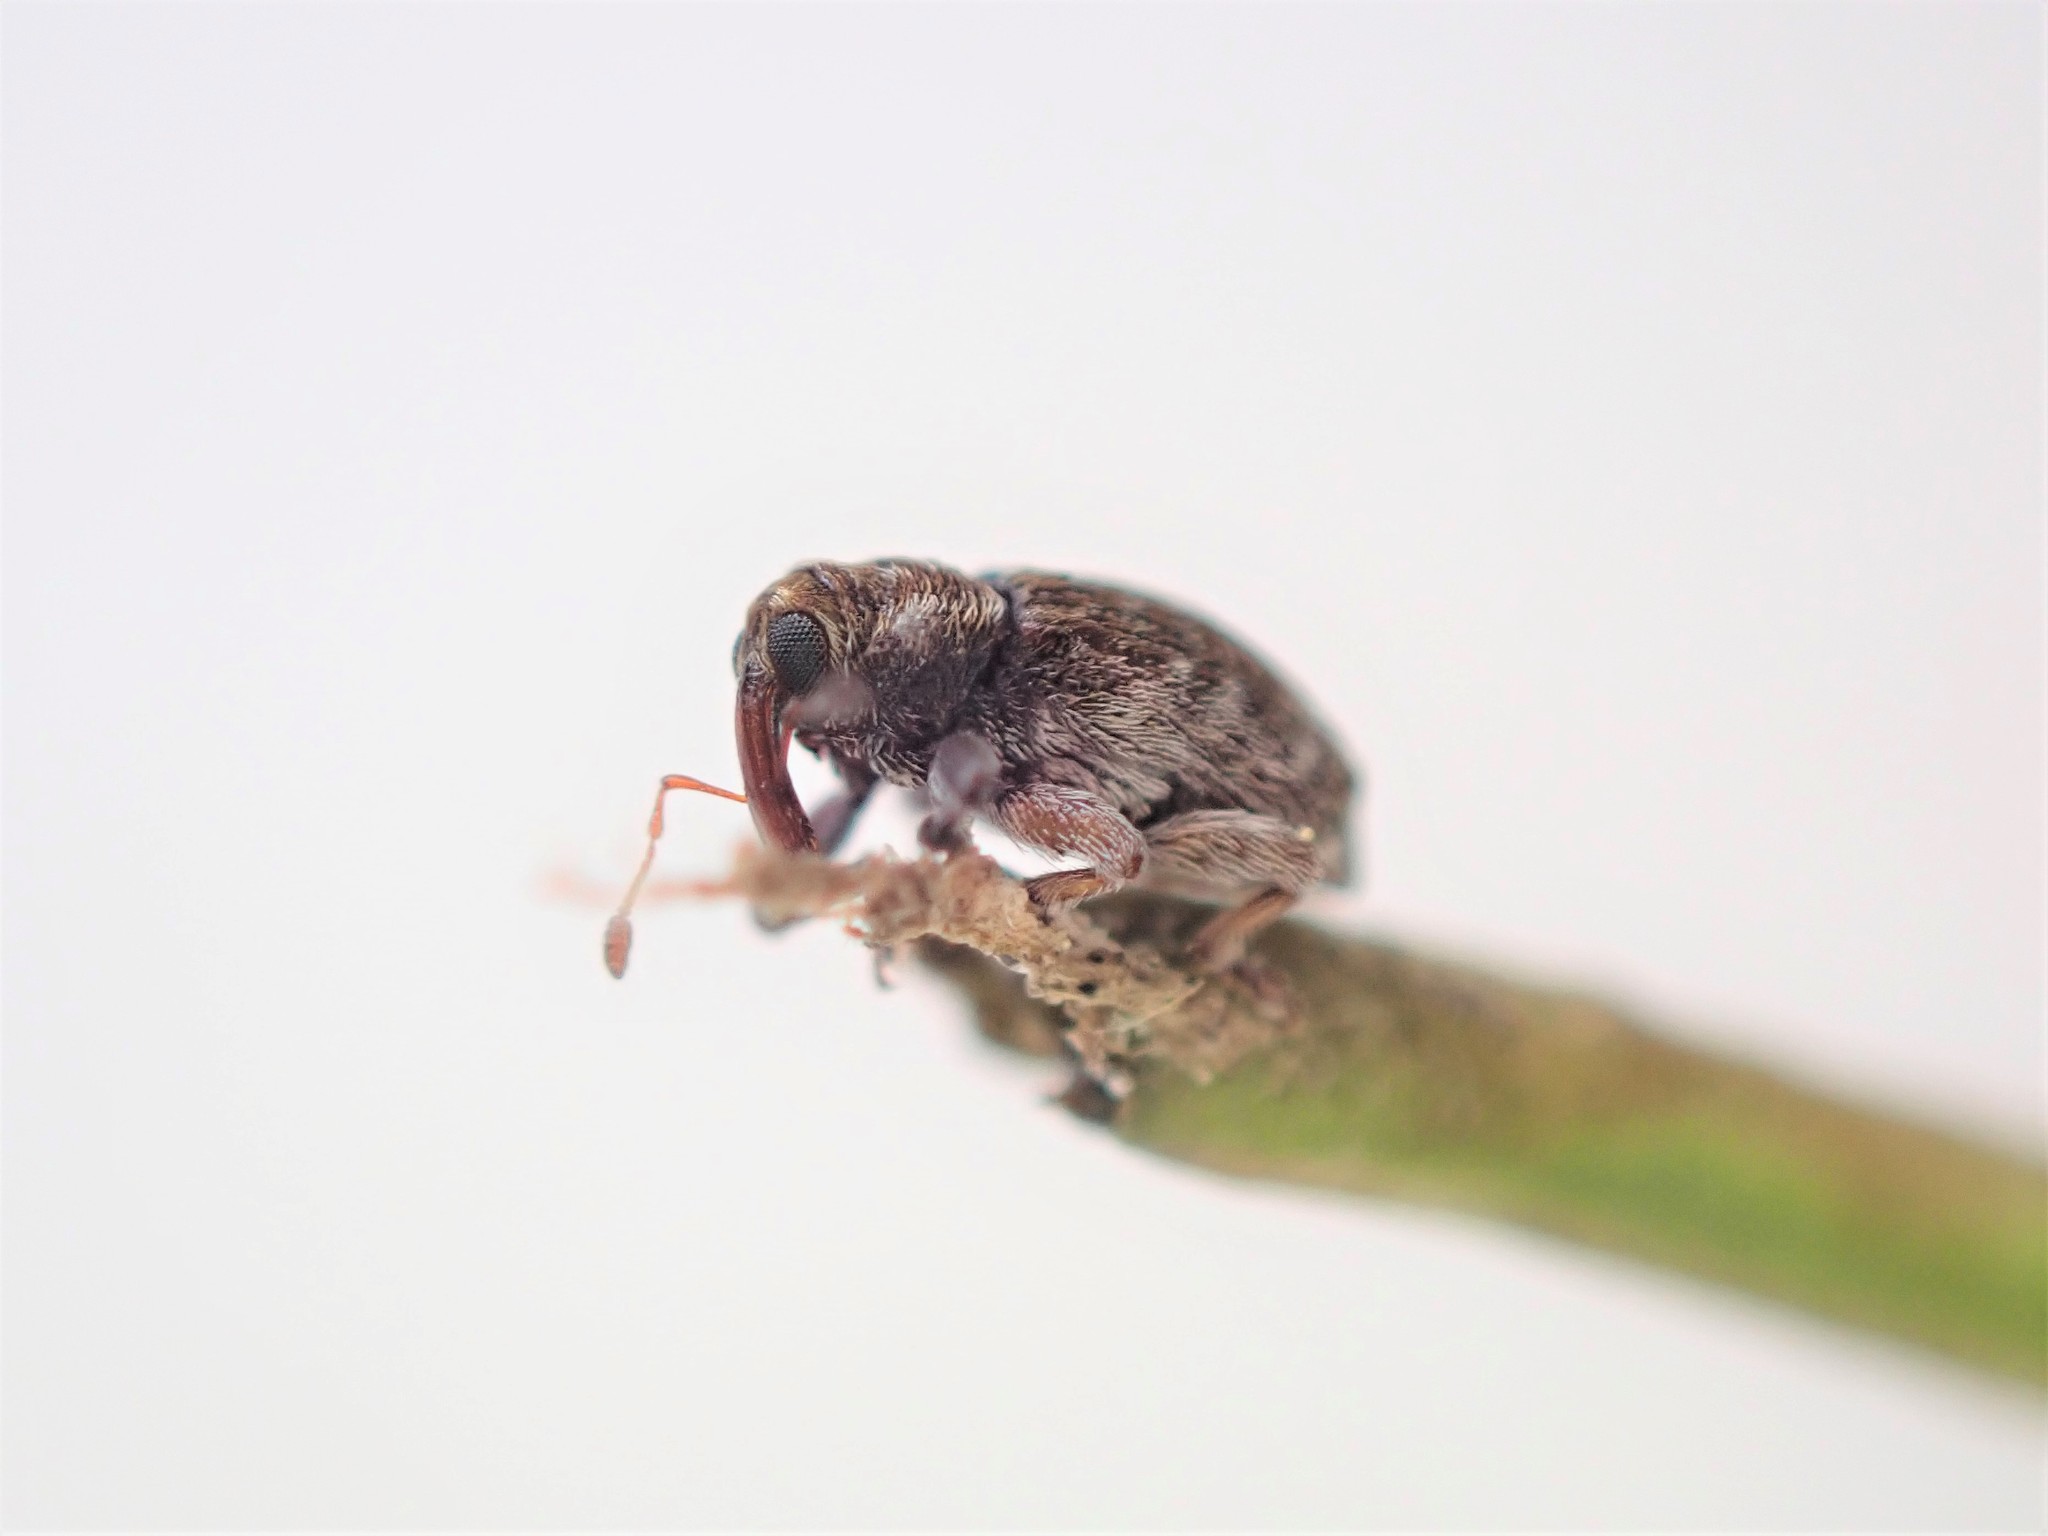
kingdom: Animalia
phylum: Arthropoda
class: Insecta
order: Coleoptera
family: Curculionidae
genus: Aneuma
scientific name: Aneuma fasciatum
